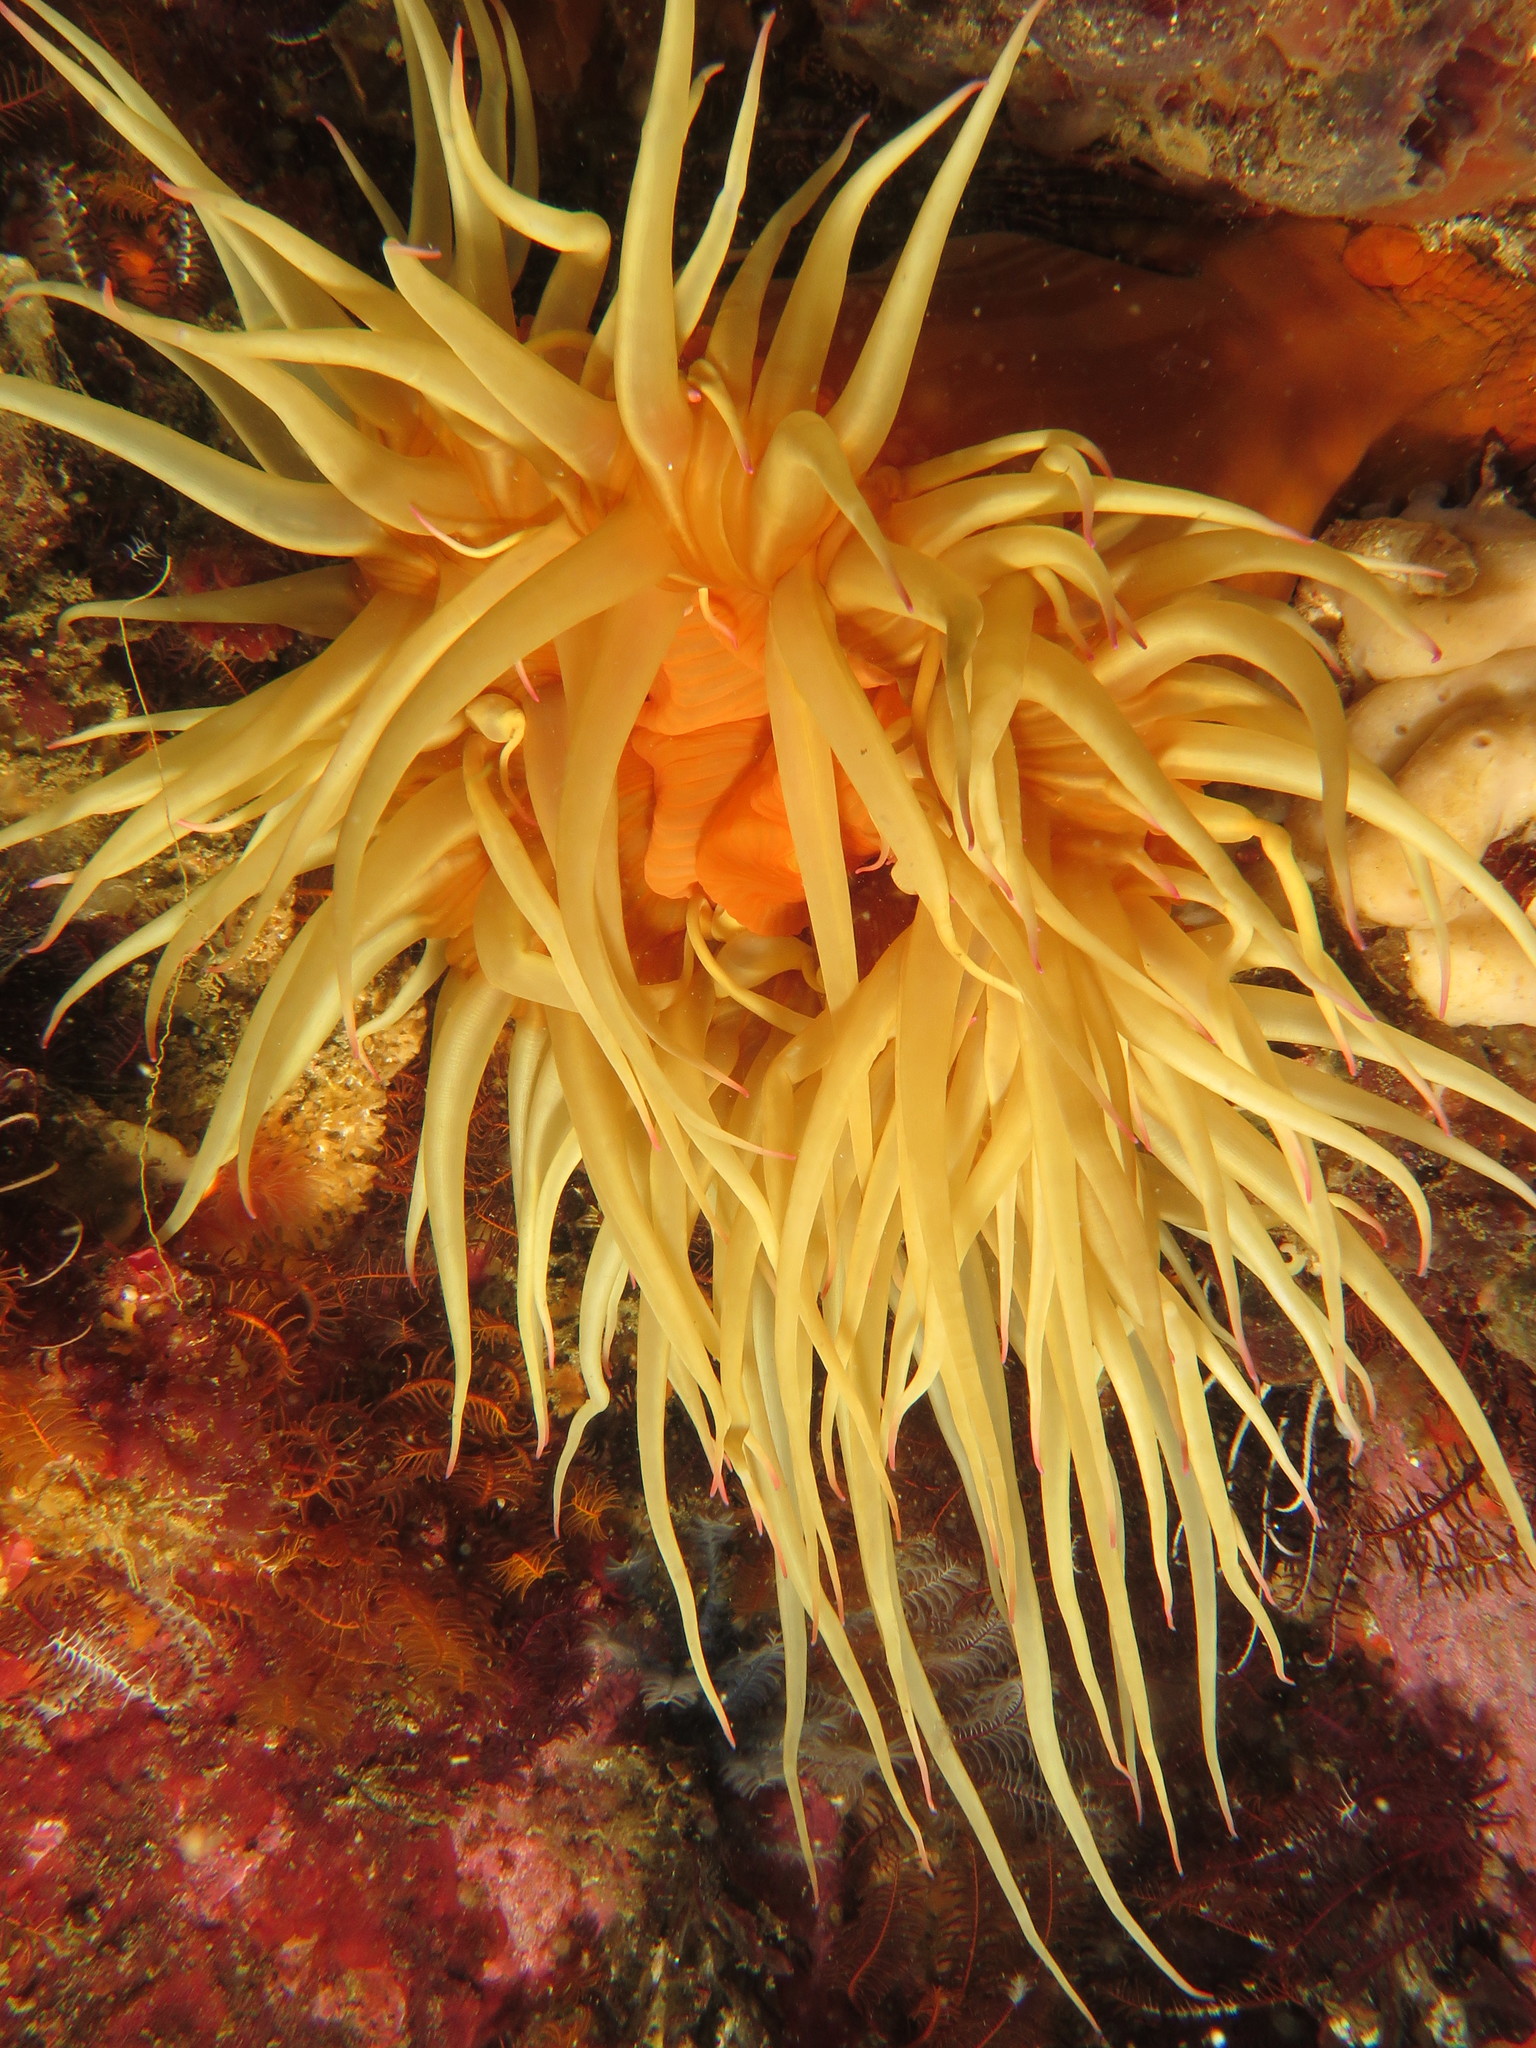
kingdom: Animalia
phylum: Cnidaria
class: Anthozoa
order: Actiniaria
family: Actiniidae
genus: Pseudactinia
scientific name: Pseudactinia flagellifera
